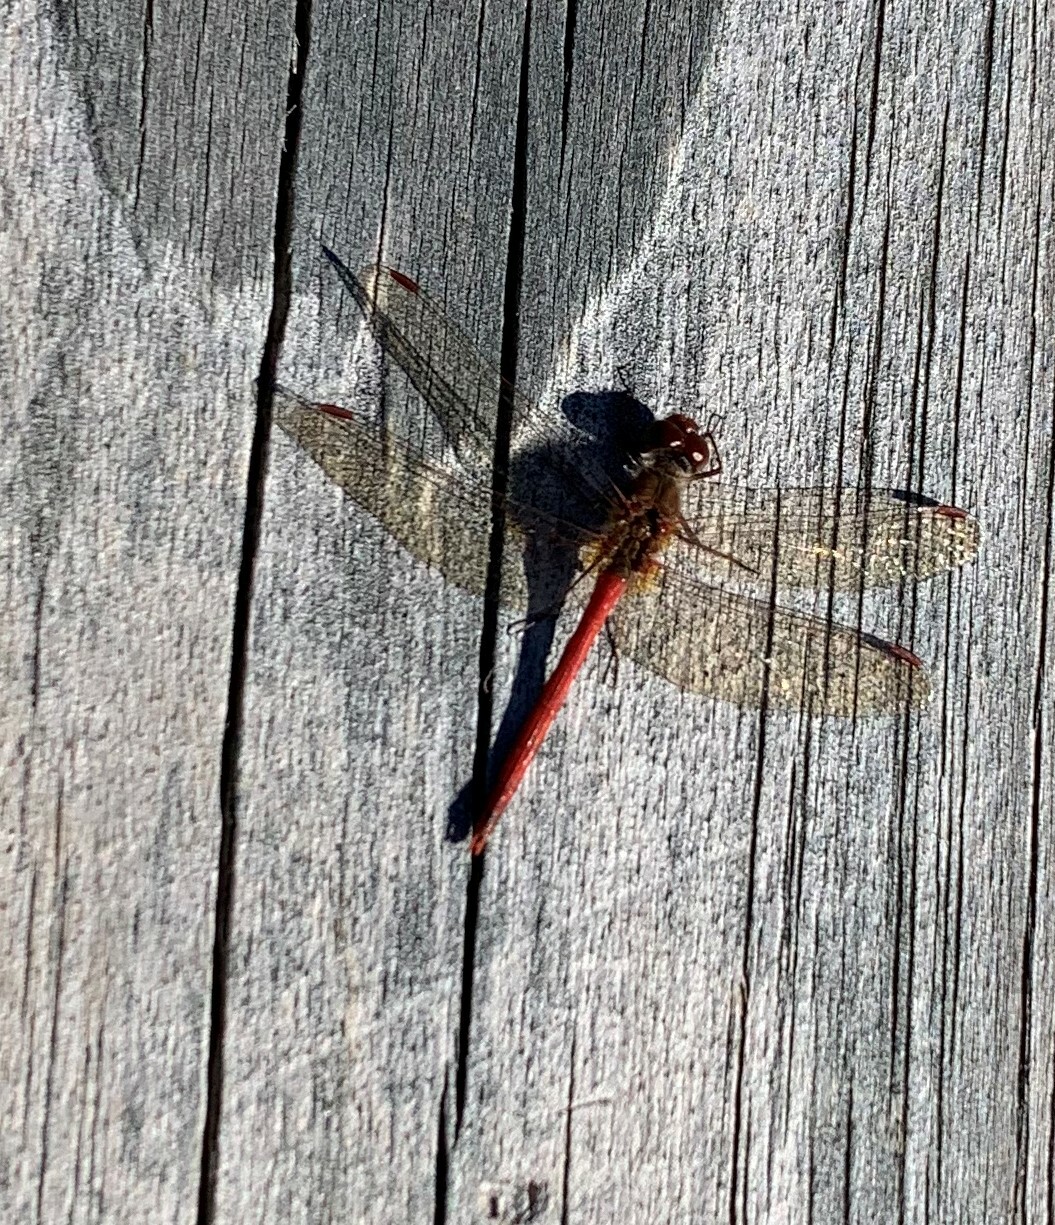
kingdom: Animalia
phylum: Arthropoda
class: Insecta
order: Odonata
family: Libellulidae
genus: Sympetrum
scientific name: Sympetrum vicinum
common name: Autumn meadowhawk
